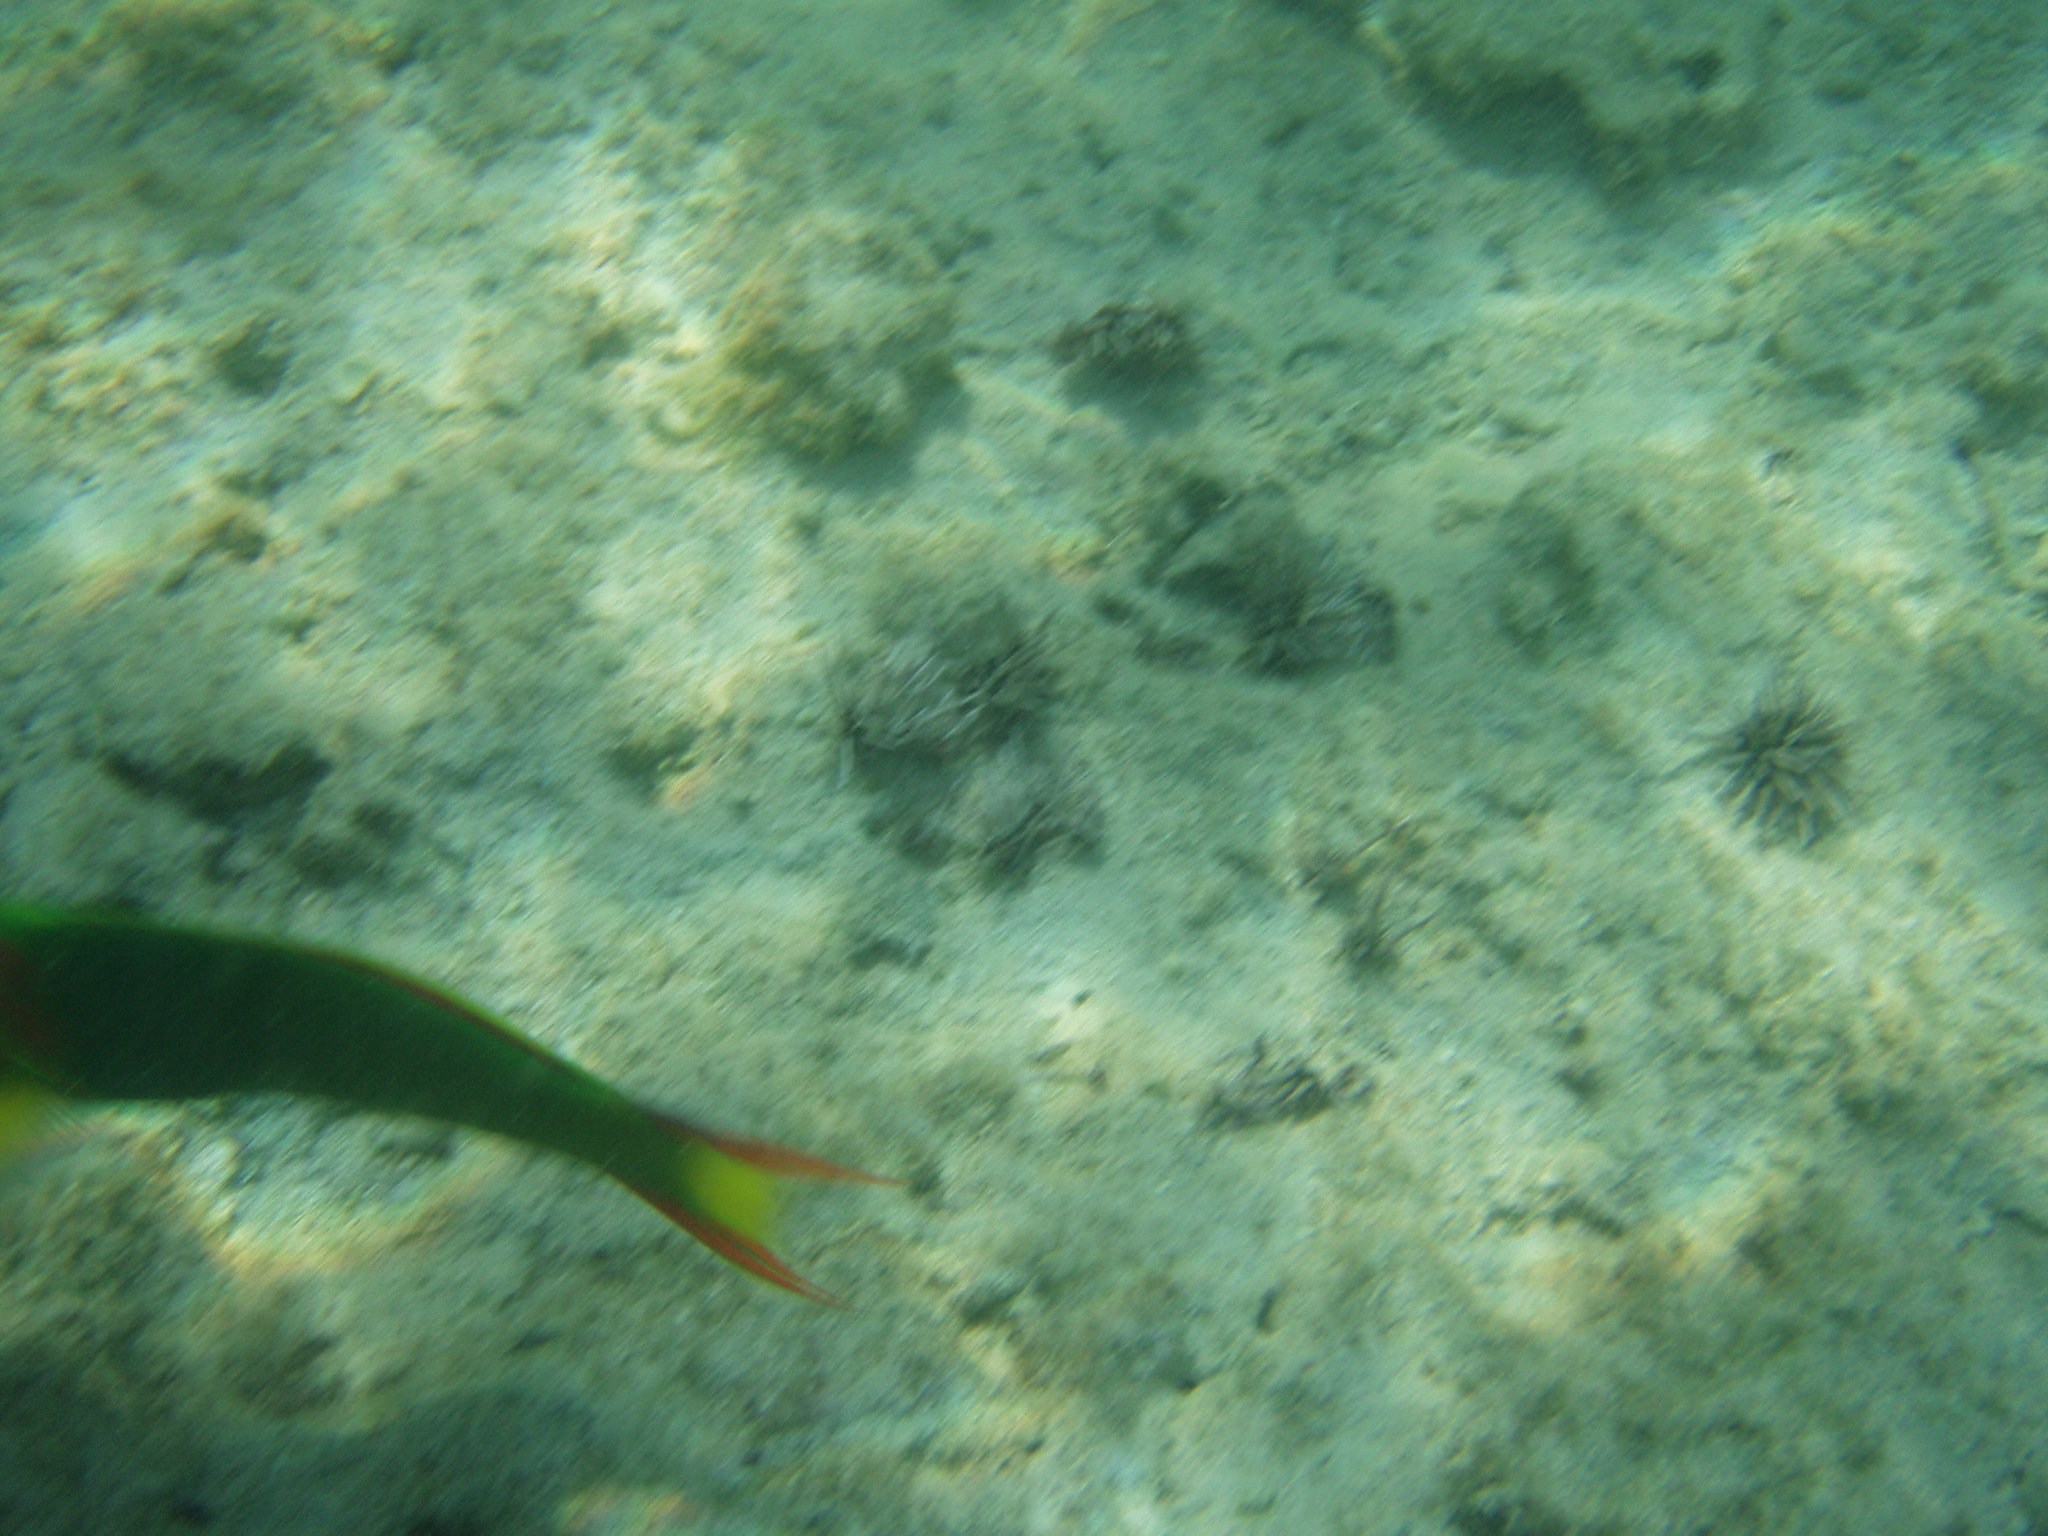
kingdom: Animalia
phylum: Chordata
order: Perciformes
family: Labridae
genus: Thalassoma
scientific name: Thalassoma lutescens
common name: Green moon wrasse
